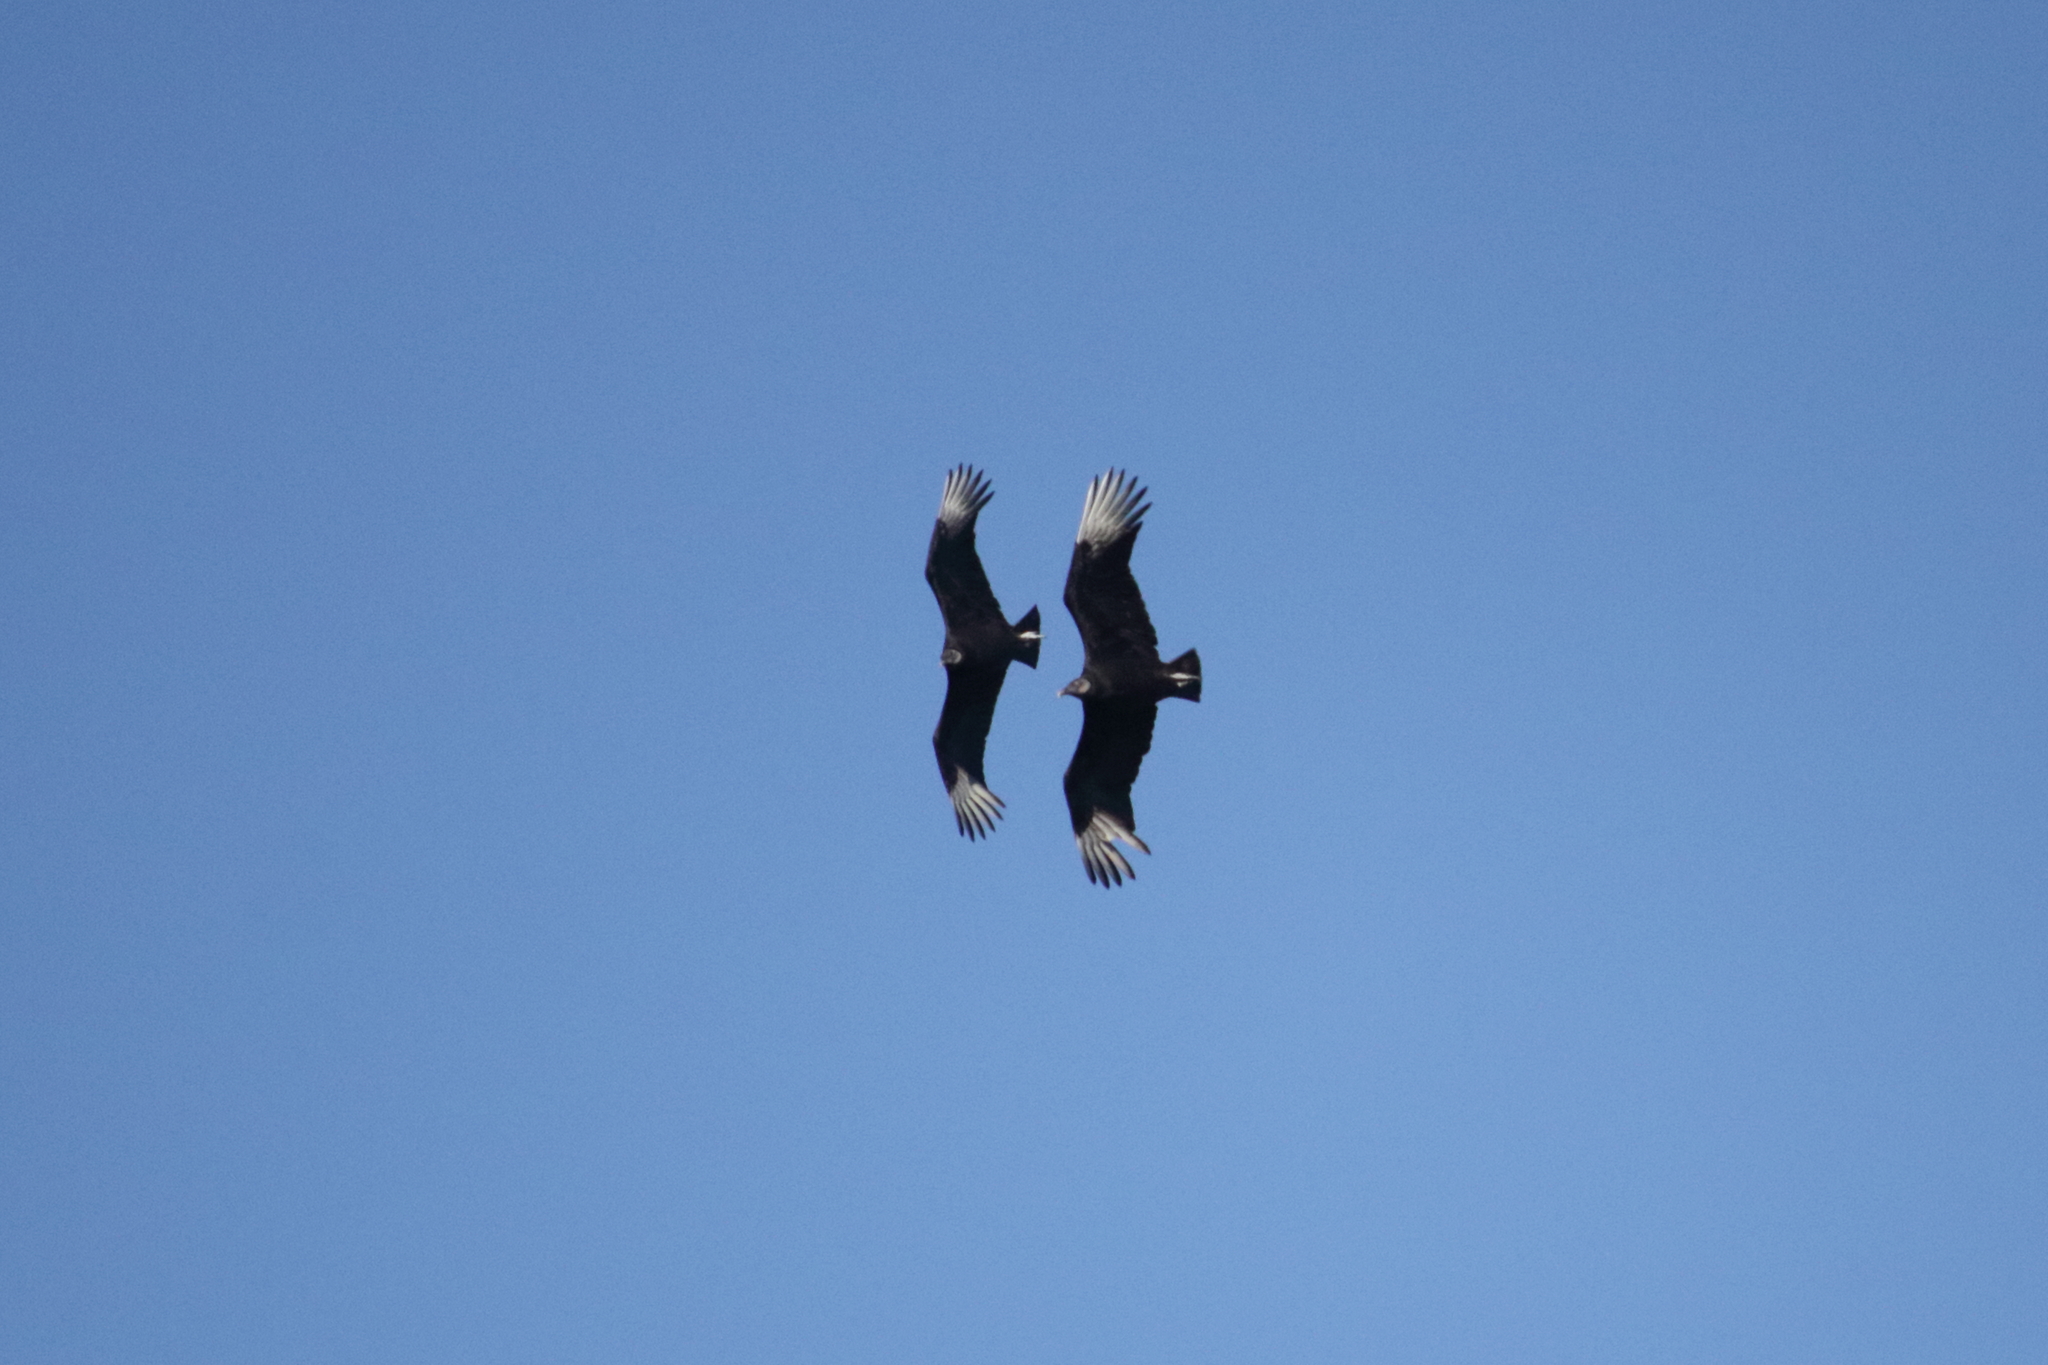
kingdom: Animalia
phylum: Chordata
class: Aves
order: Accipitriformes
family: Cathartidae
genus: Coragyps
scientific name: Coragyps atratus
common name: Black vulture
